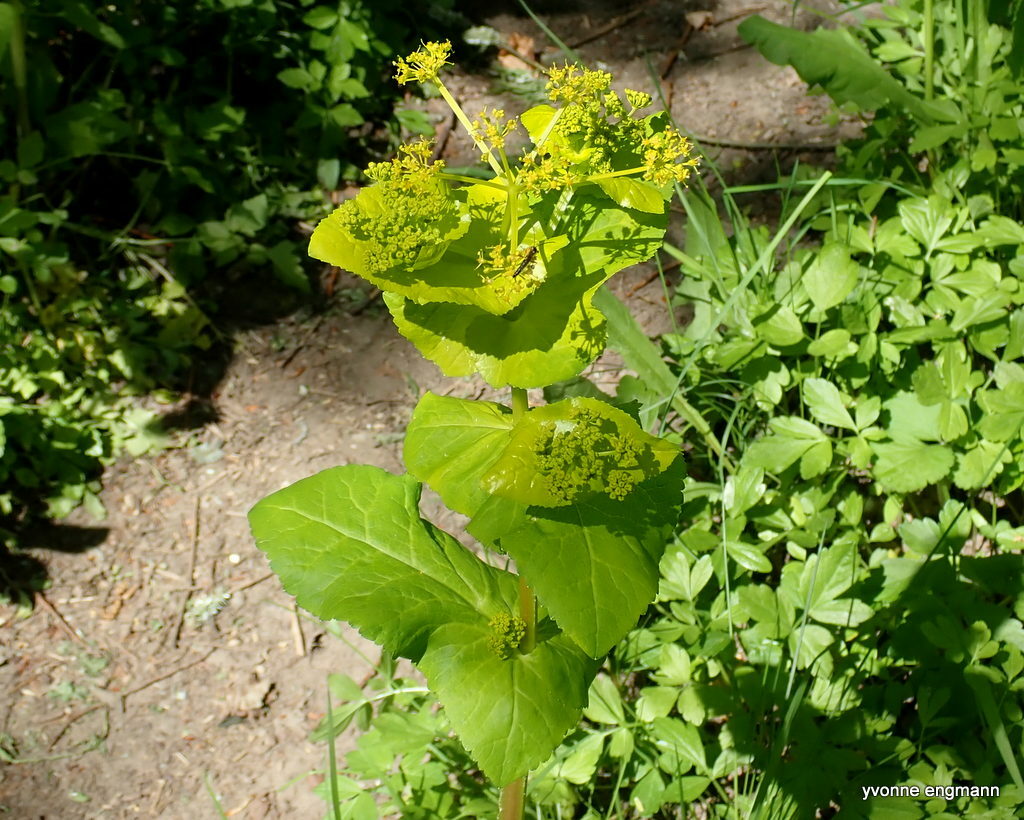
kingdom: Plantae
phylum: Tracheophyta
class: Magnoliopsida
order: Apiales
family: Apiaceae
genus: Smyrnium
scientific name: Smyrnium perfoliatum
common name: Perfoliate alexanders
